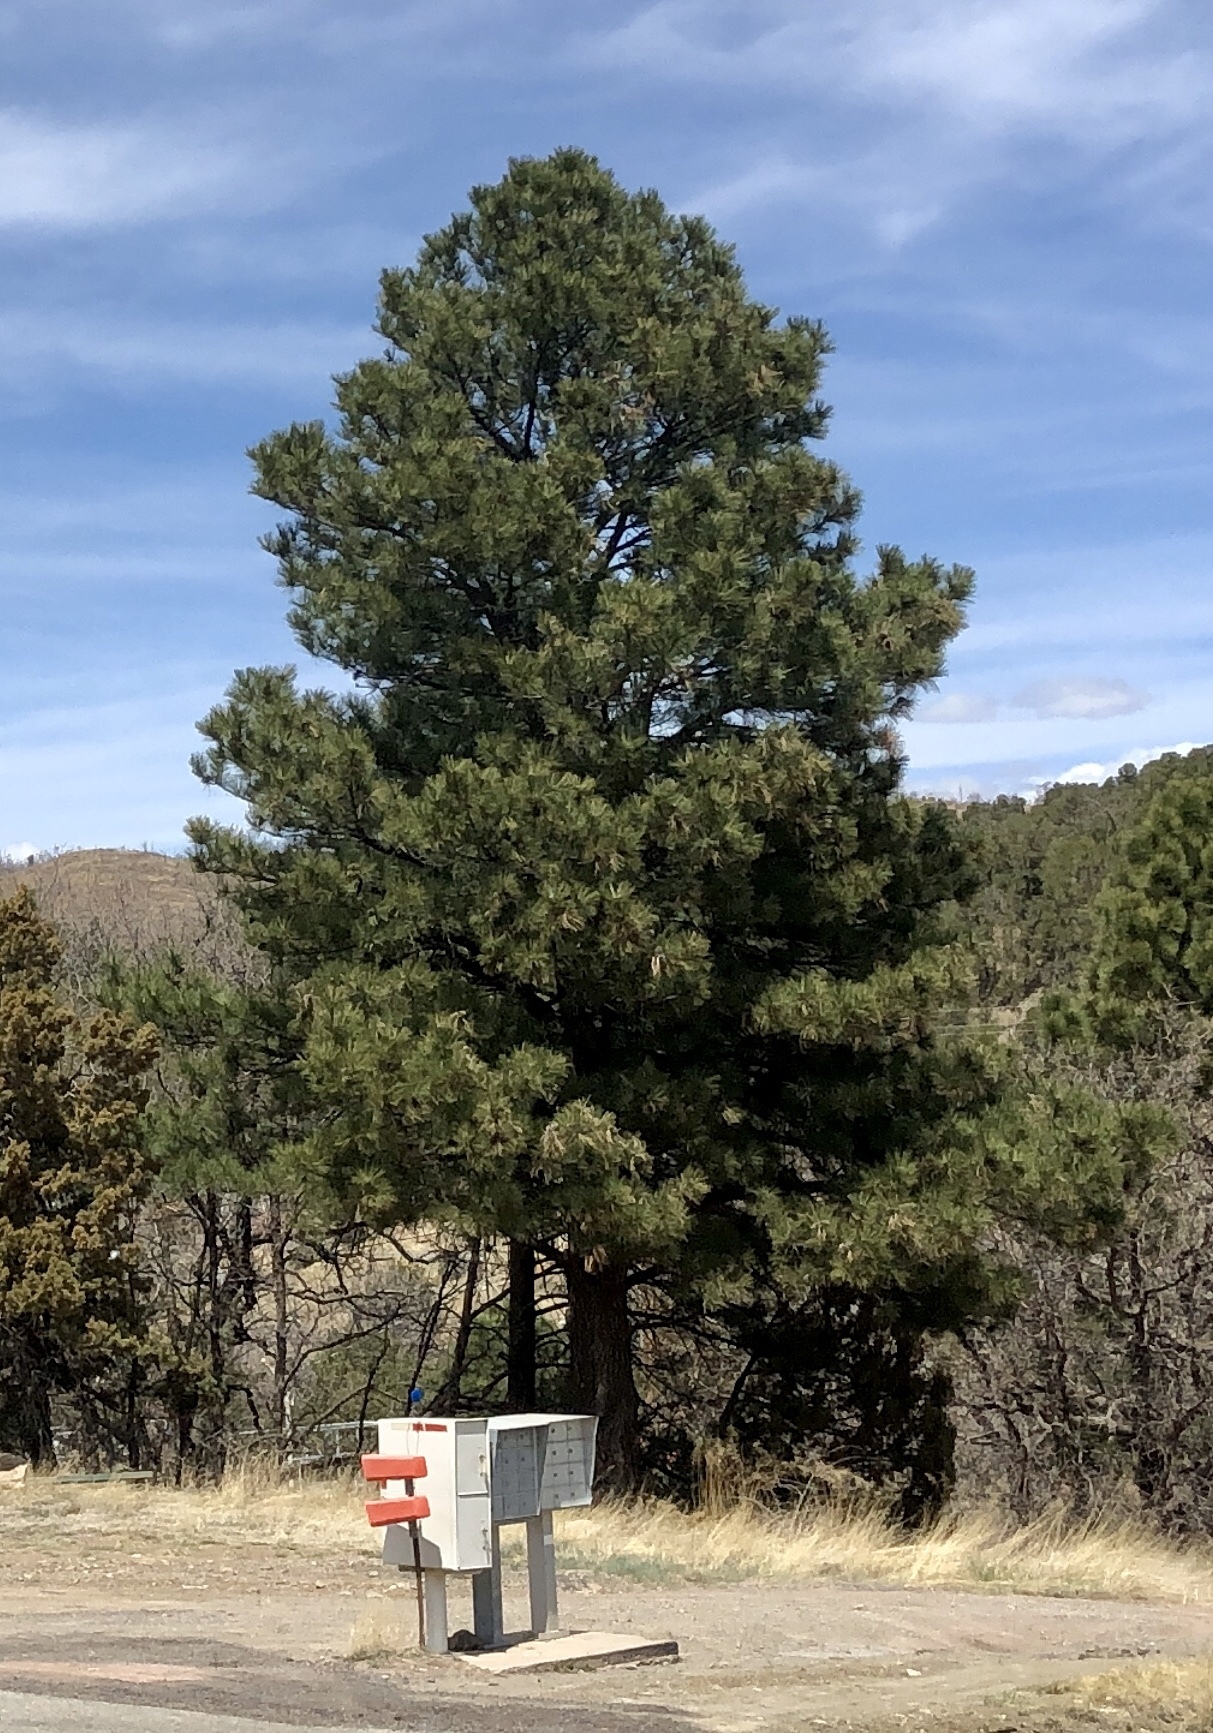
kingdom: Plantae
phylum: Tracheophyta
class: Pinopsida
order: Pinales
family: Pinaceae
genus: Pinus
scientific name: Pinus ponderosa
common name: Western yellow-pine
